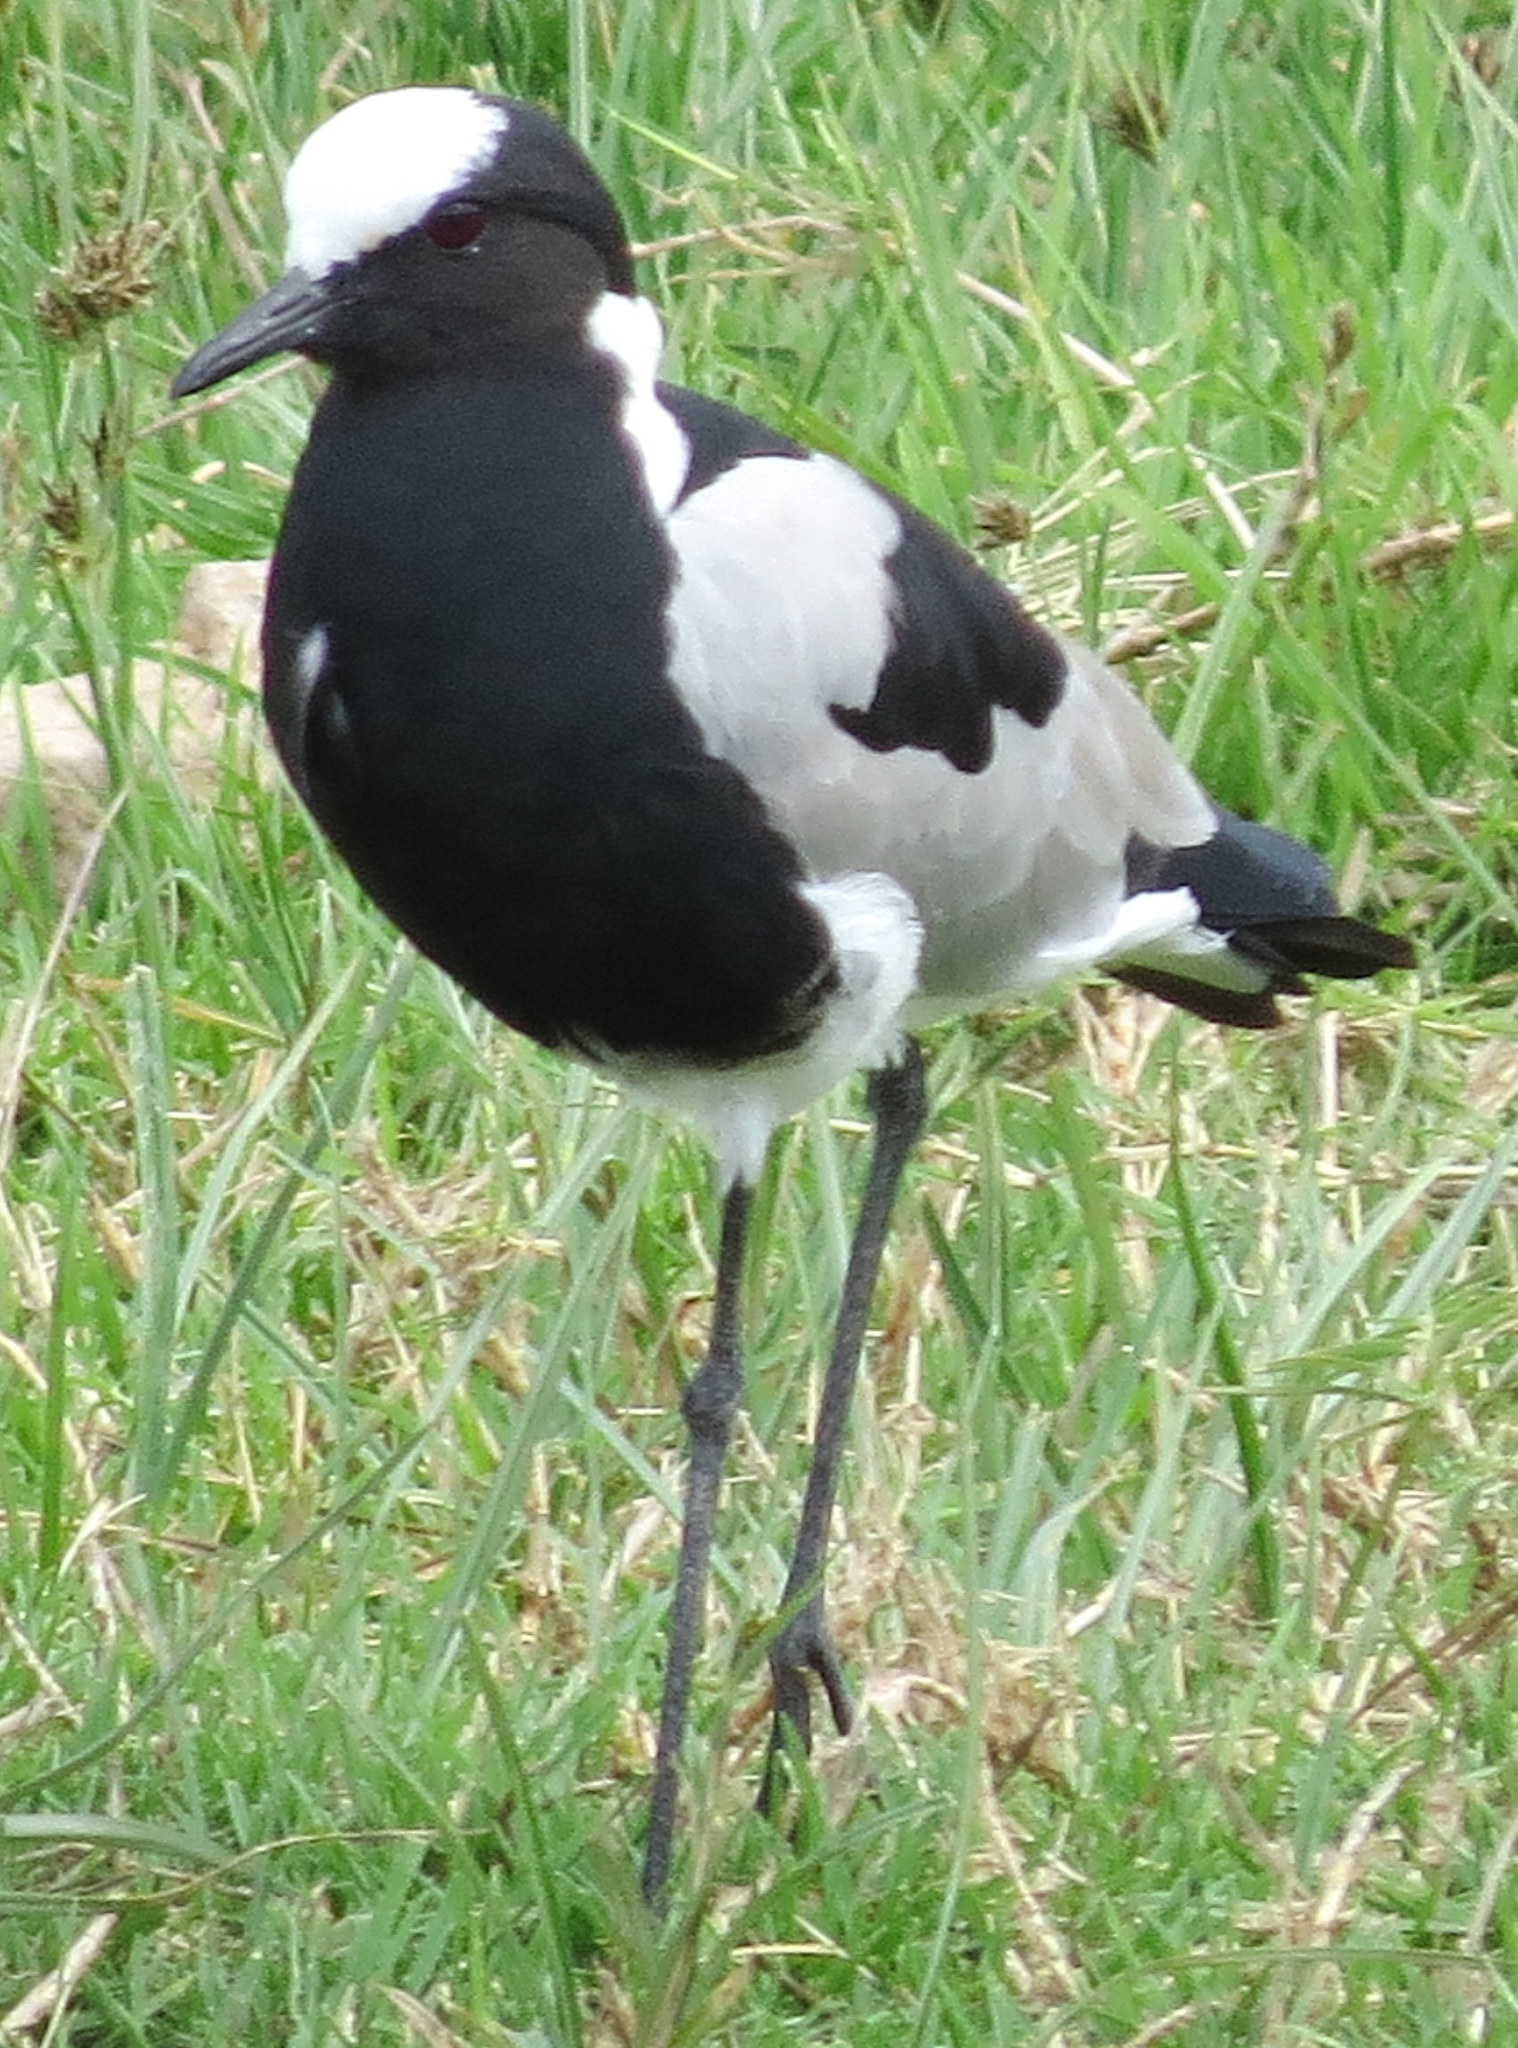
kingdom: Animalia
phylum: Chordata
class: Aves
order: Charadriiformes
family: Charadriidae
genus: Vanellus
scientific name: Vanellus armatus
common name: Blacksmith lapwing
